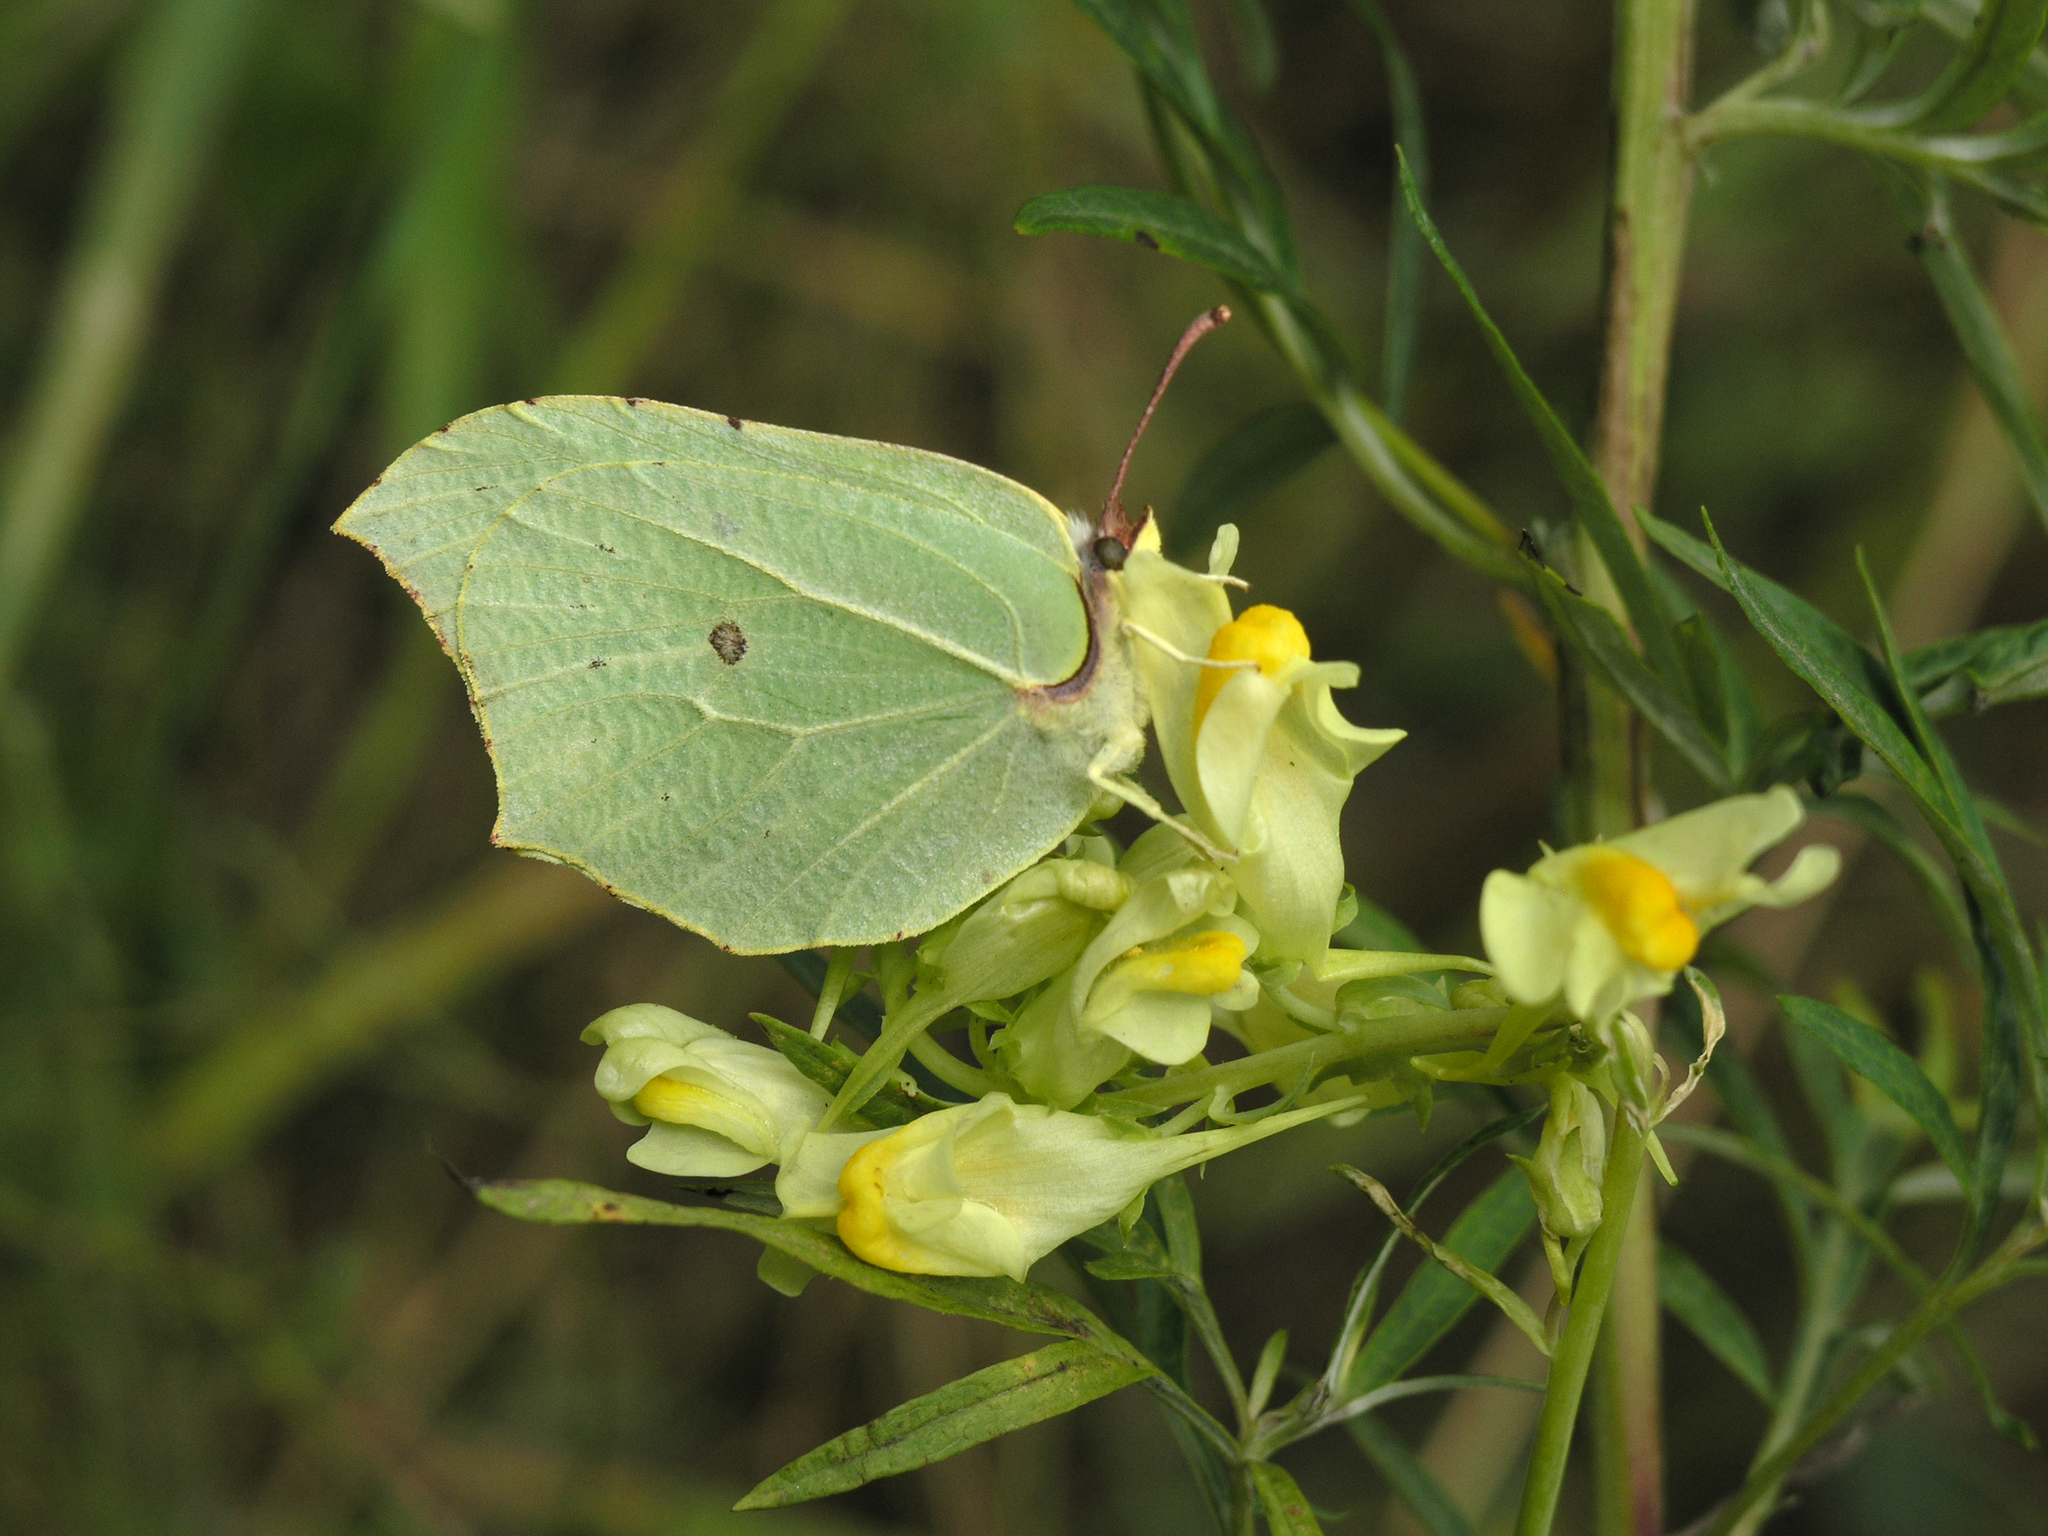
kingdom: Animalia
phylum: Arthropoda
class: Insecta
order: Lepidoptera
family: Pieridae
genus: Gonepteryx
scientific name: Gonepteryx rhamni
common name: Brimstone
